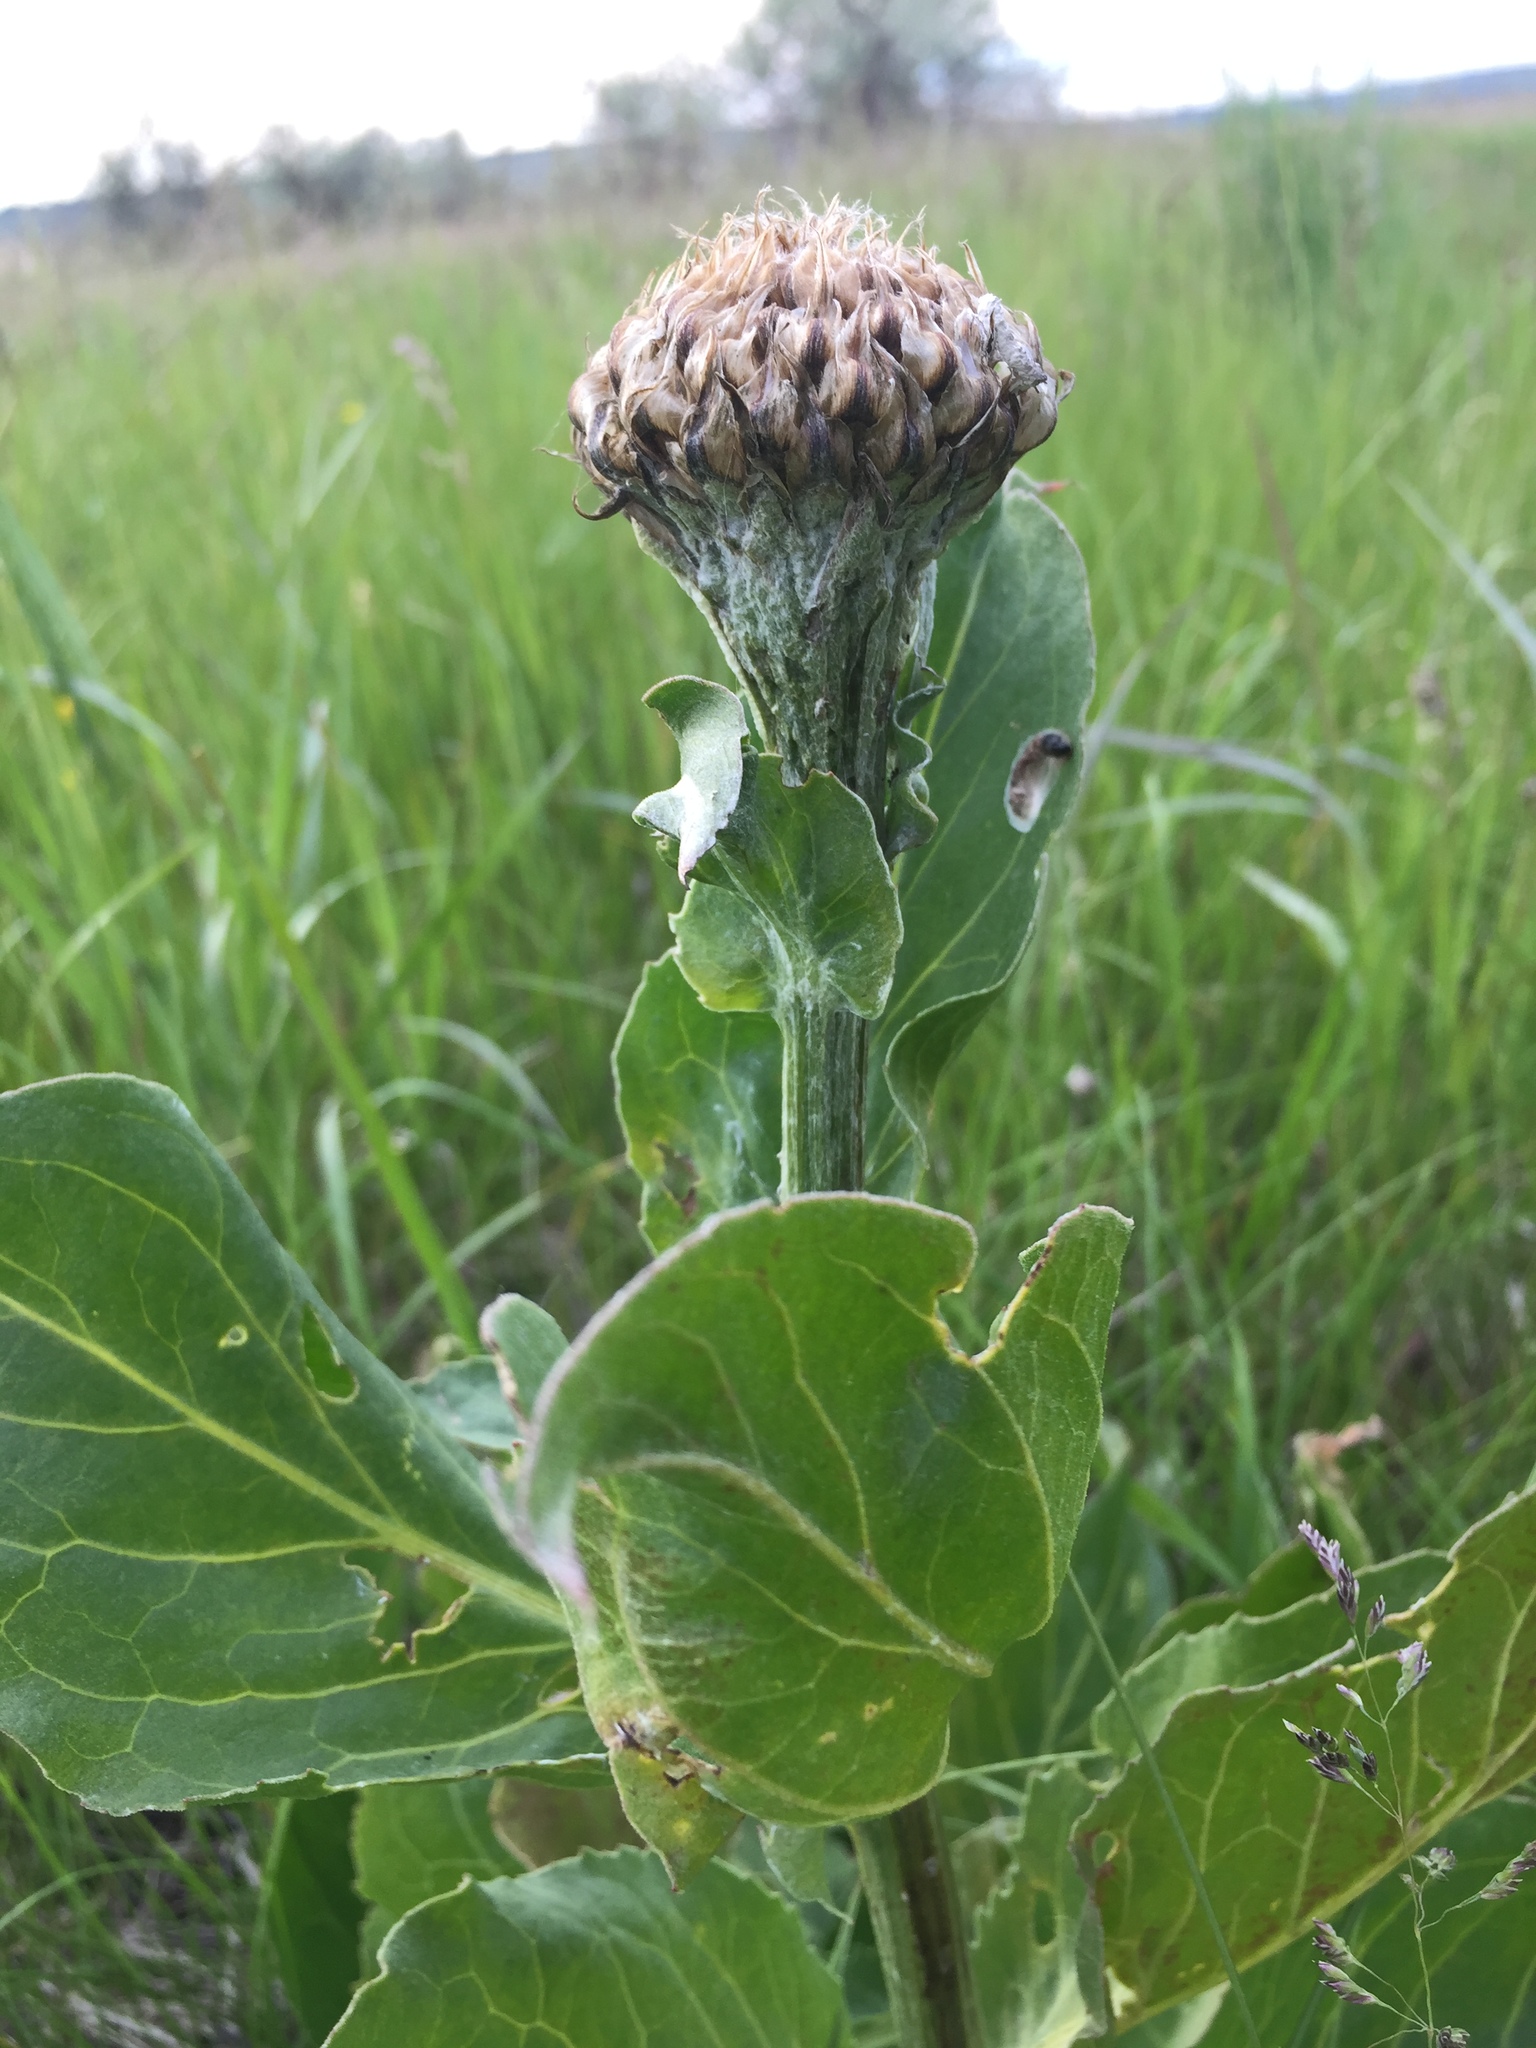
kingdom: Plantae
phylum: Tracheophyta
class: Magnoliopsida
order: Asterales
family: Asteraceae
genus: Leuzea
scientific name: Leuzea carthamoides
